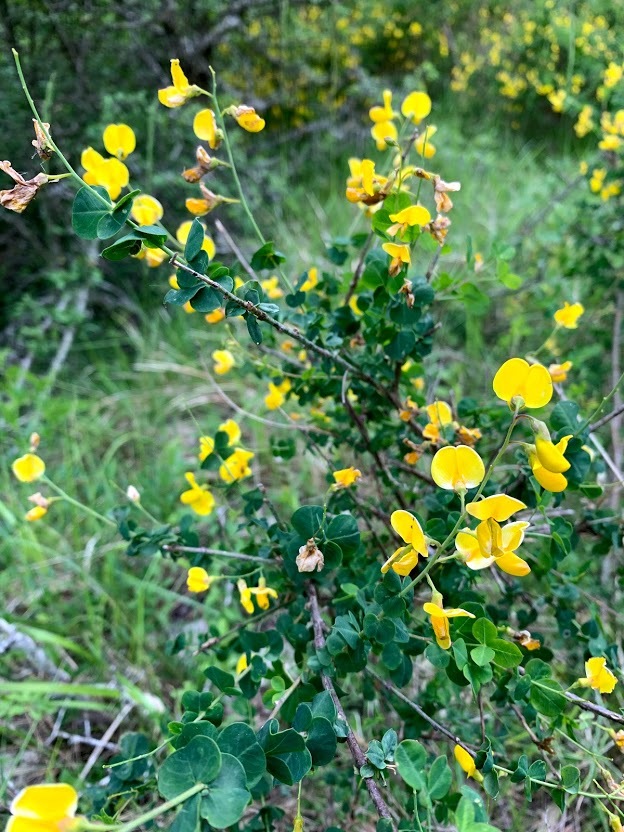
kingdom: Plantae
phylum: Tracheophyta
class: Magnoliopsida
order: Fabales
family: Fabaceae
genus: Cytisophyllum
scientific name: Cytisophyllum sessilifolium
